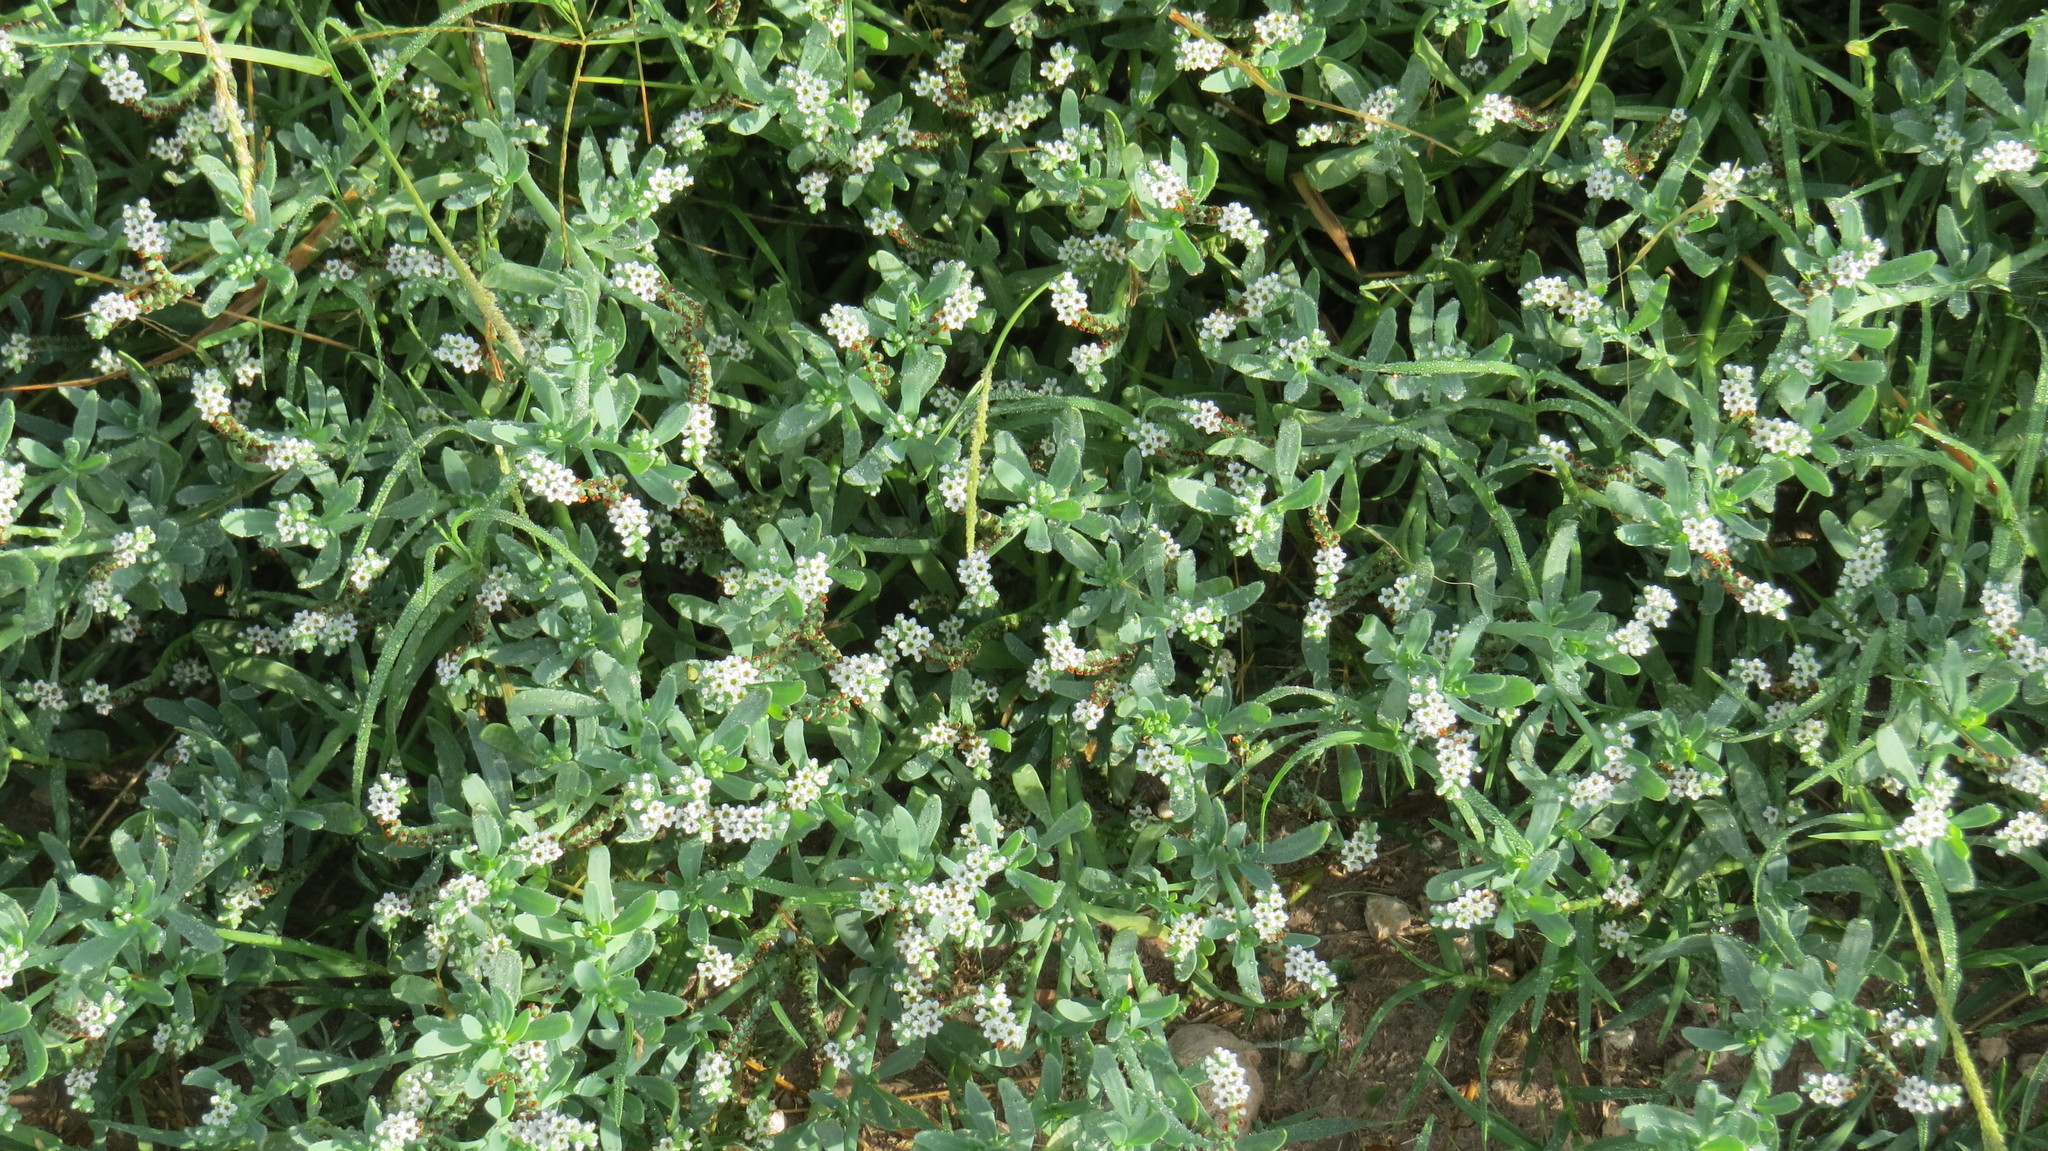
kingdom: Plantae
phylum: Tracheophyta
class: Magnoliopsida
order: Boraginales
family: Heliotropiaceae
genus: Heliotropium
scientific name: Heliotropium curassavicum
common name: Seaside heliotrope
